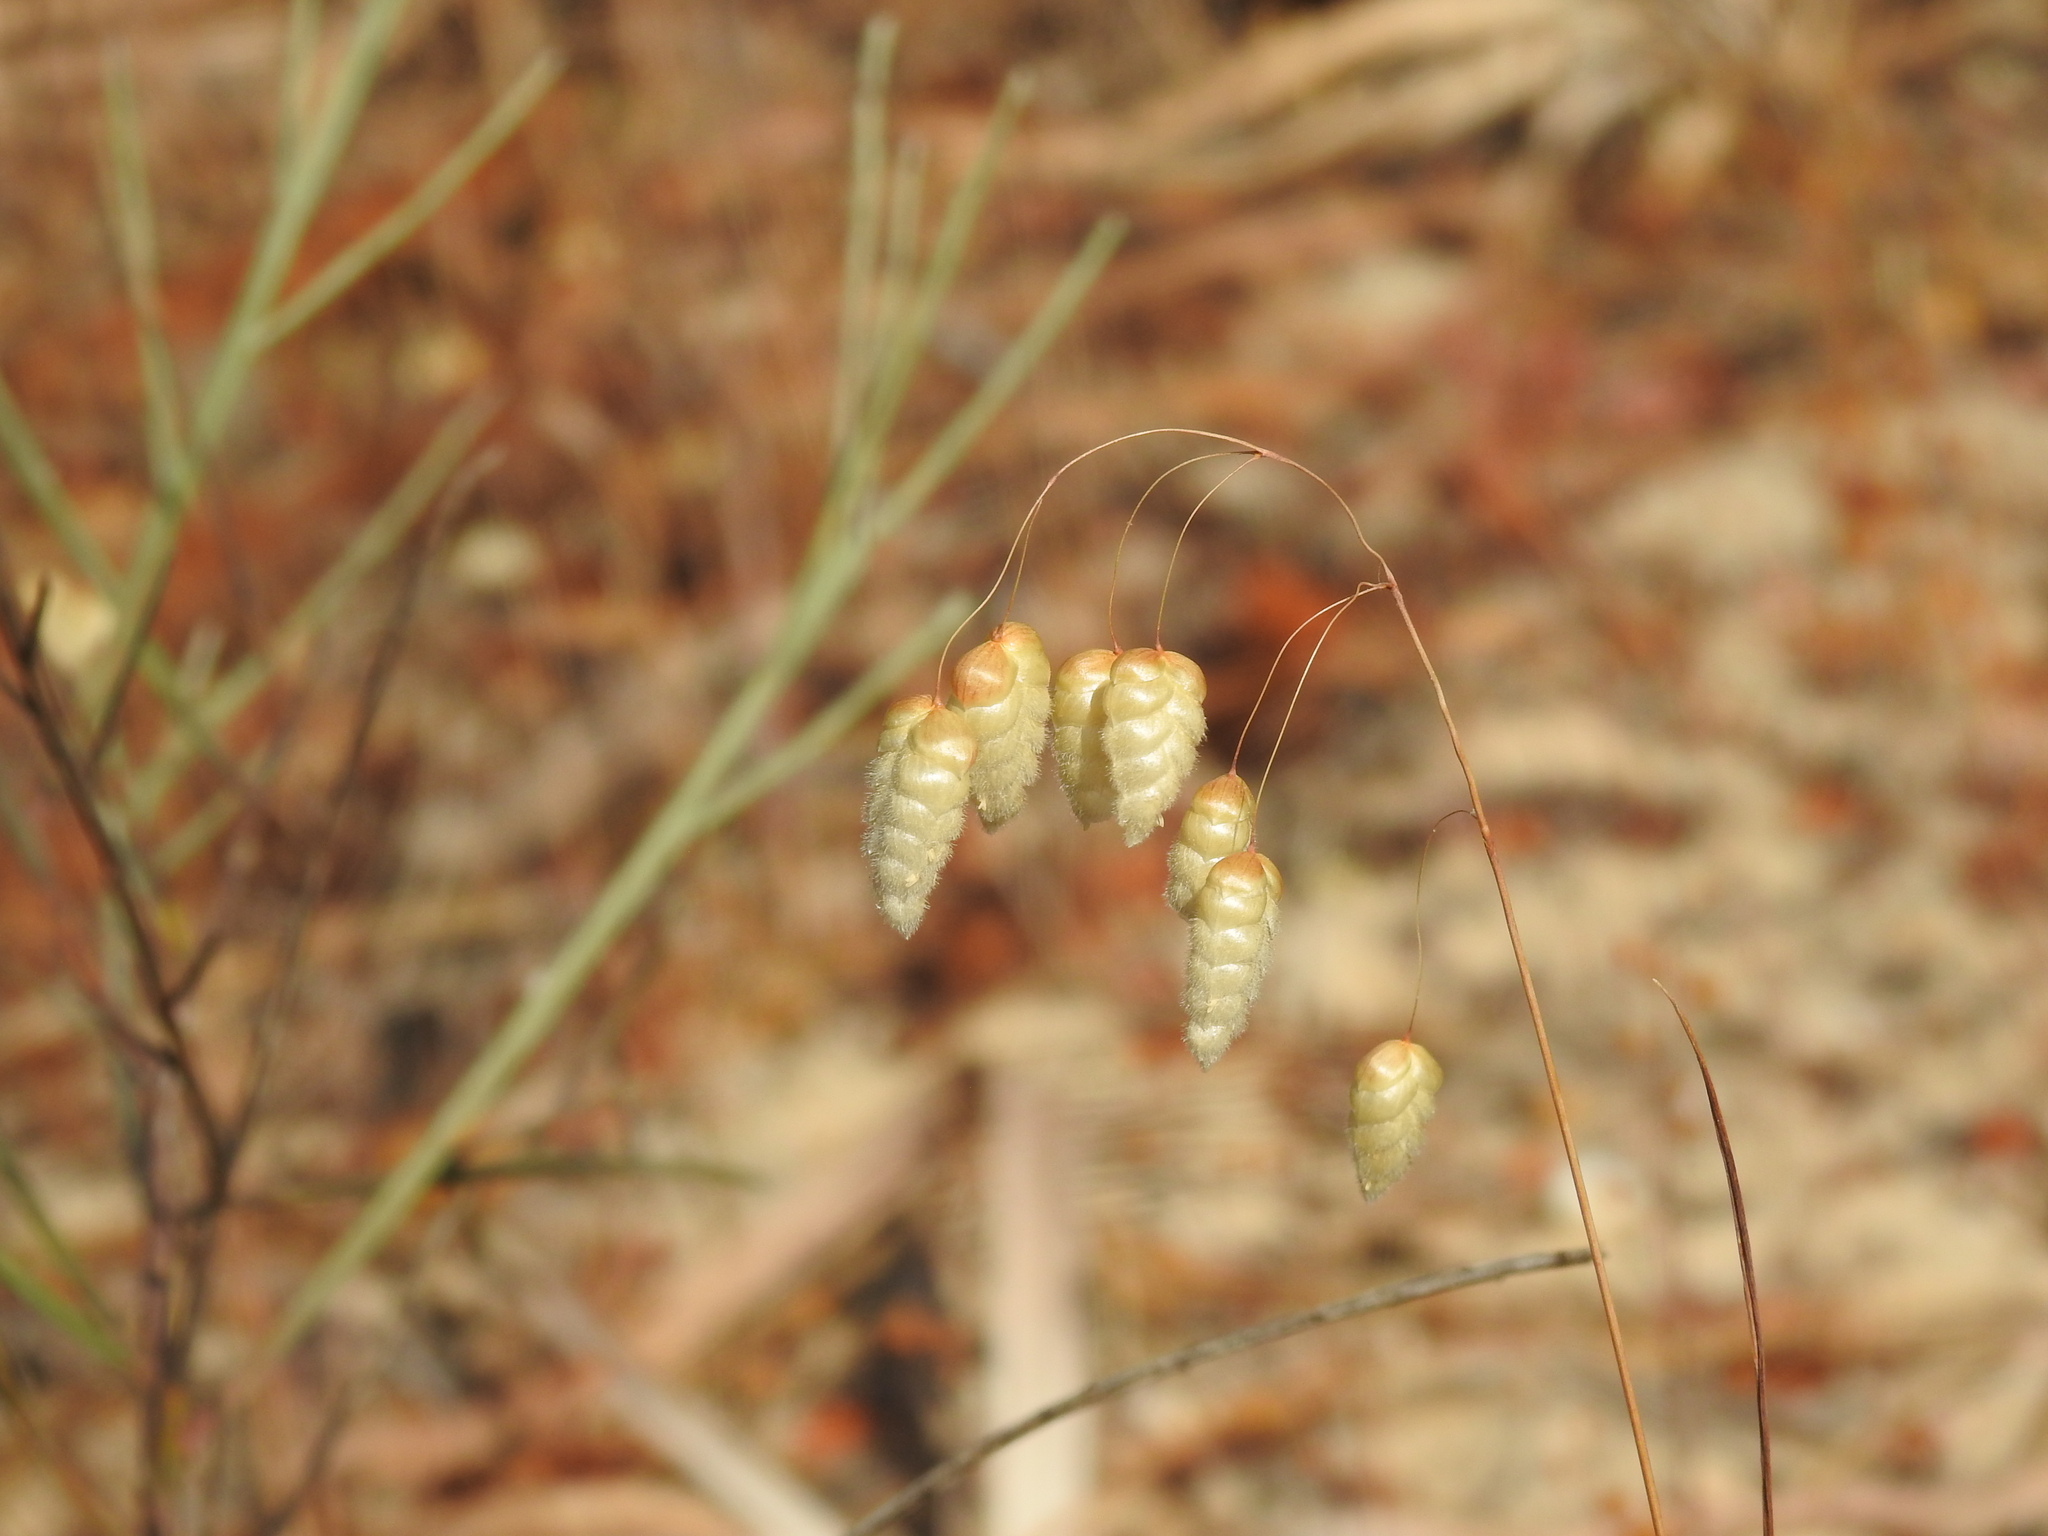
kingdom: Plantae
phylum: Tracheophyta
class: Liliopsida
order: Poales
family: Poaceae
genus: Briza
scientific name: Briza maxima
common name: Big quakinggrass
